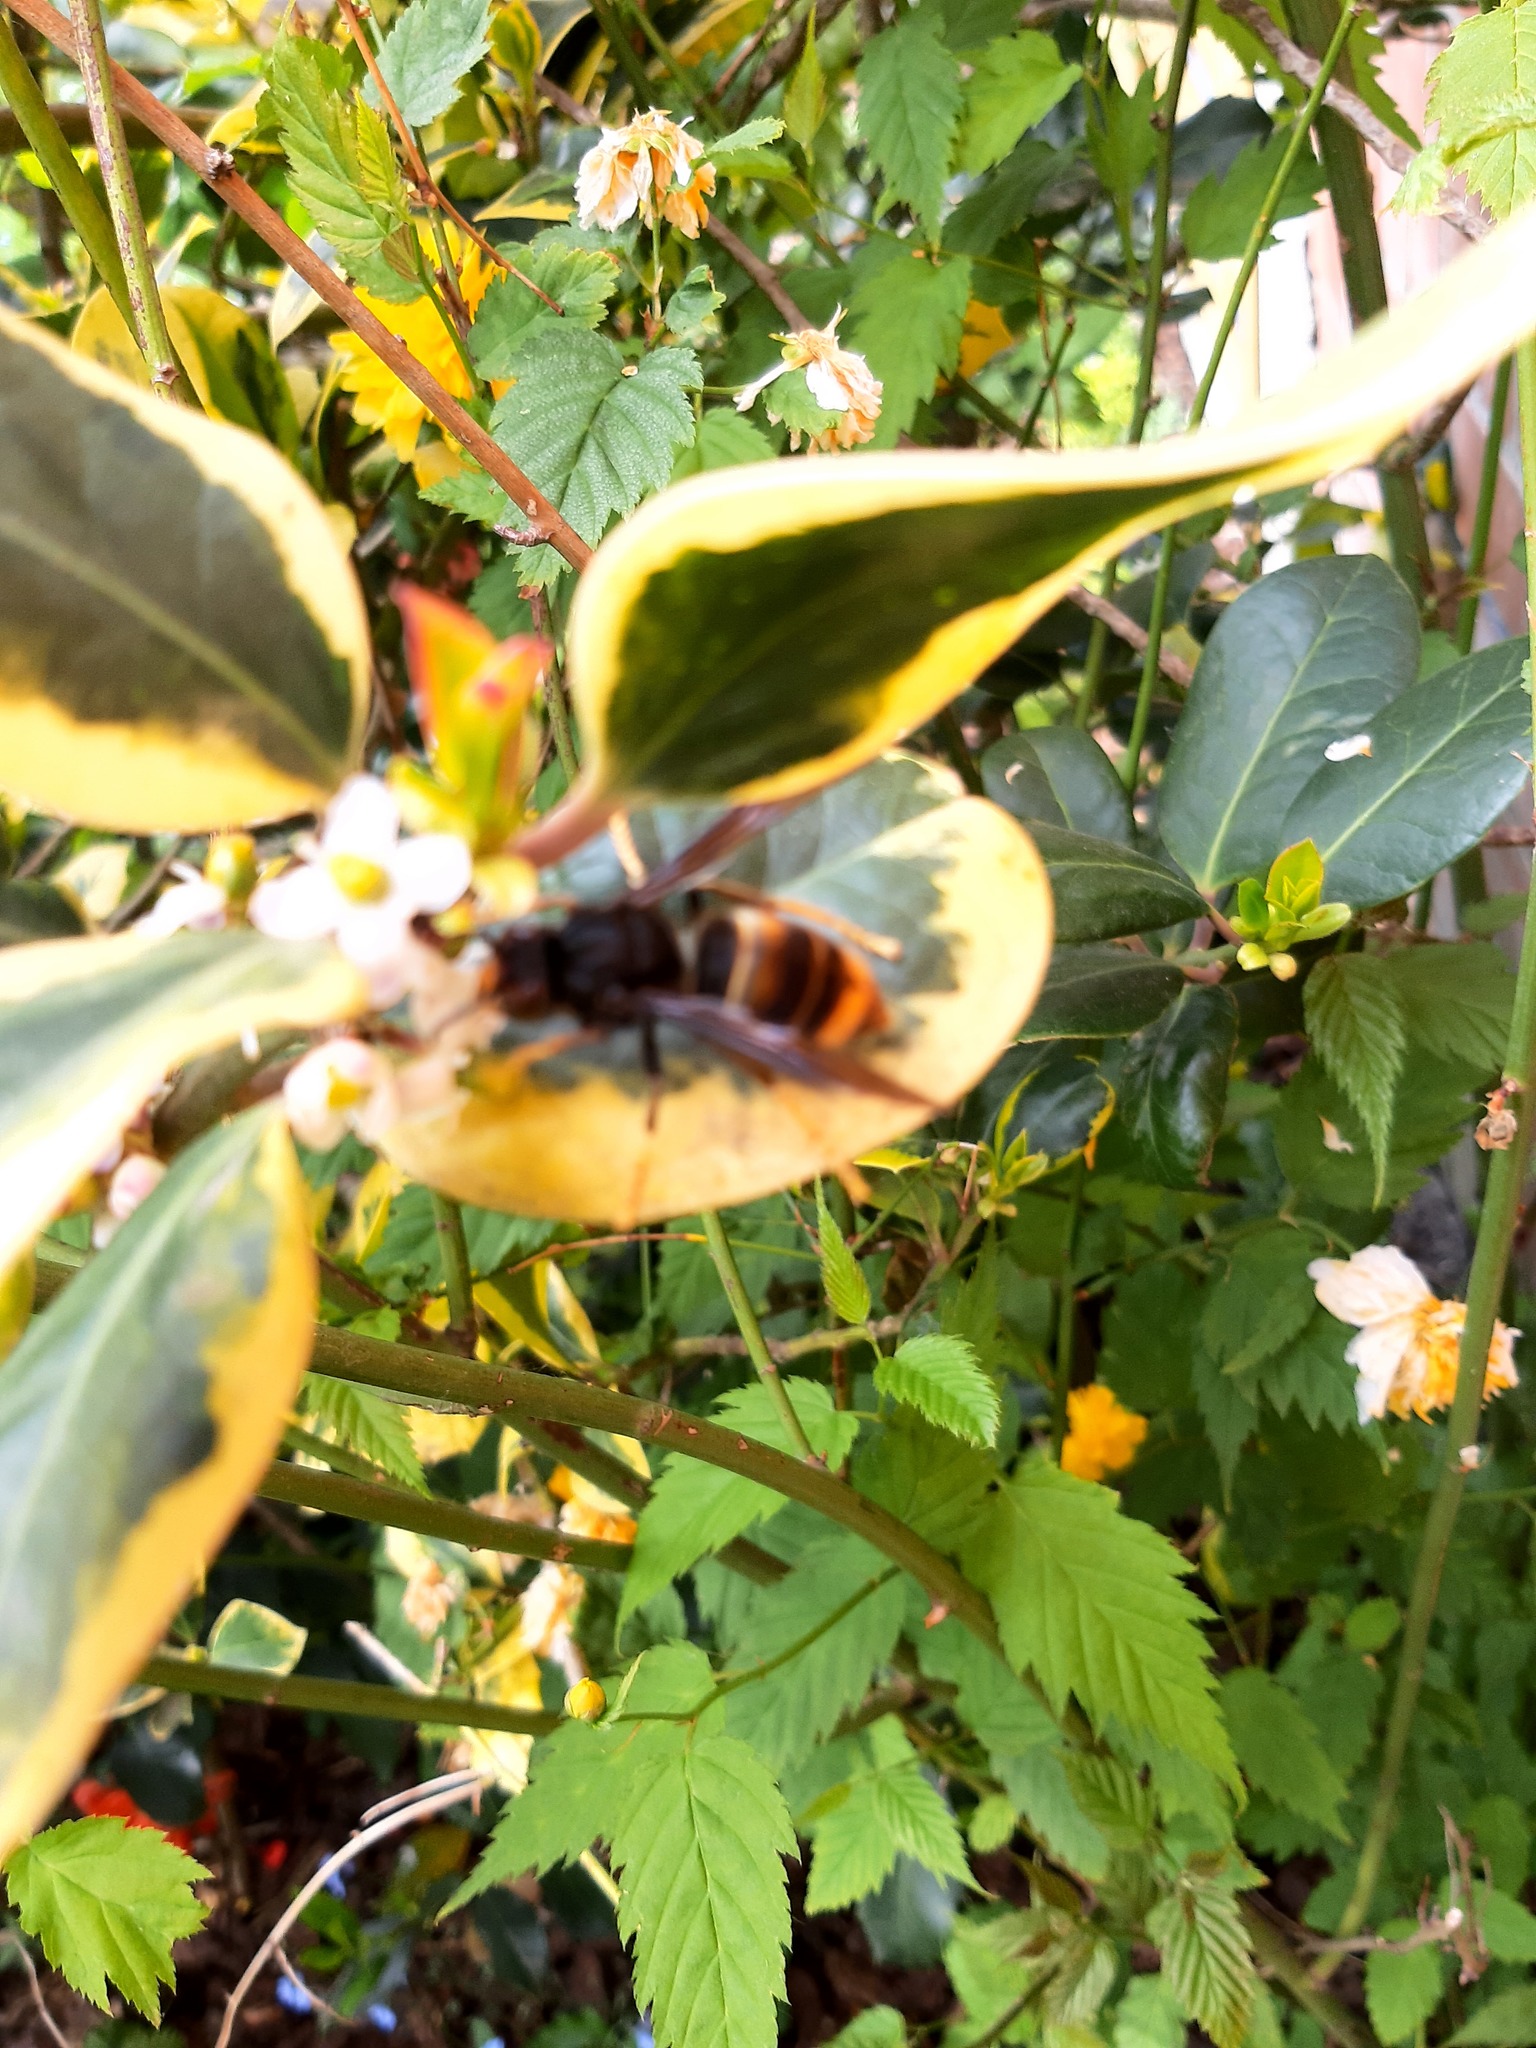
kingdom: Animalia
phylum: Arthropoda
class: Insecta
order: Hymenoptera
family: Vespidae
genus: Vespa
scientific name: Vespa velutina
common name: Asian hornet
